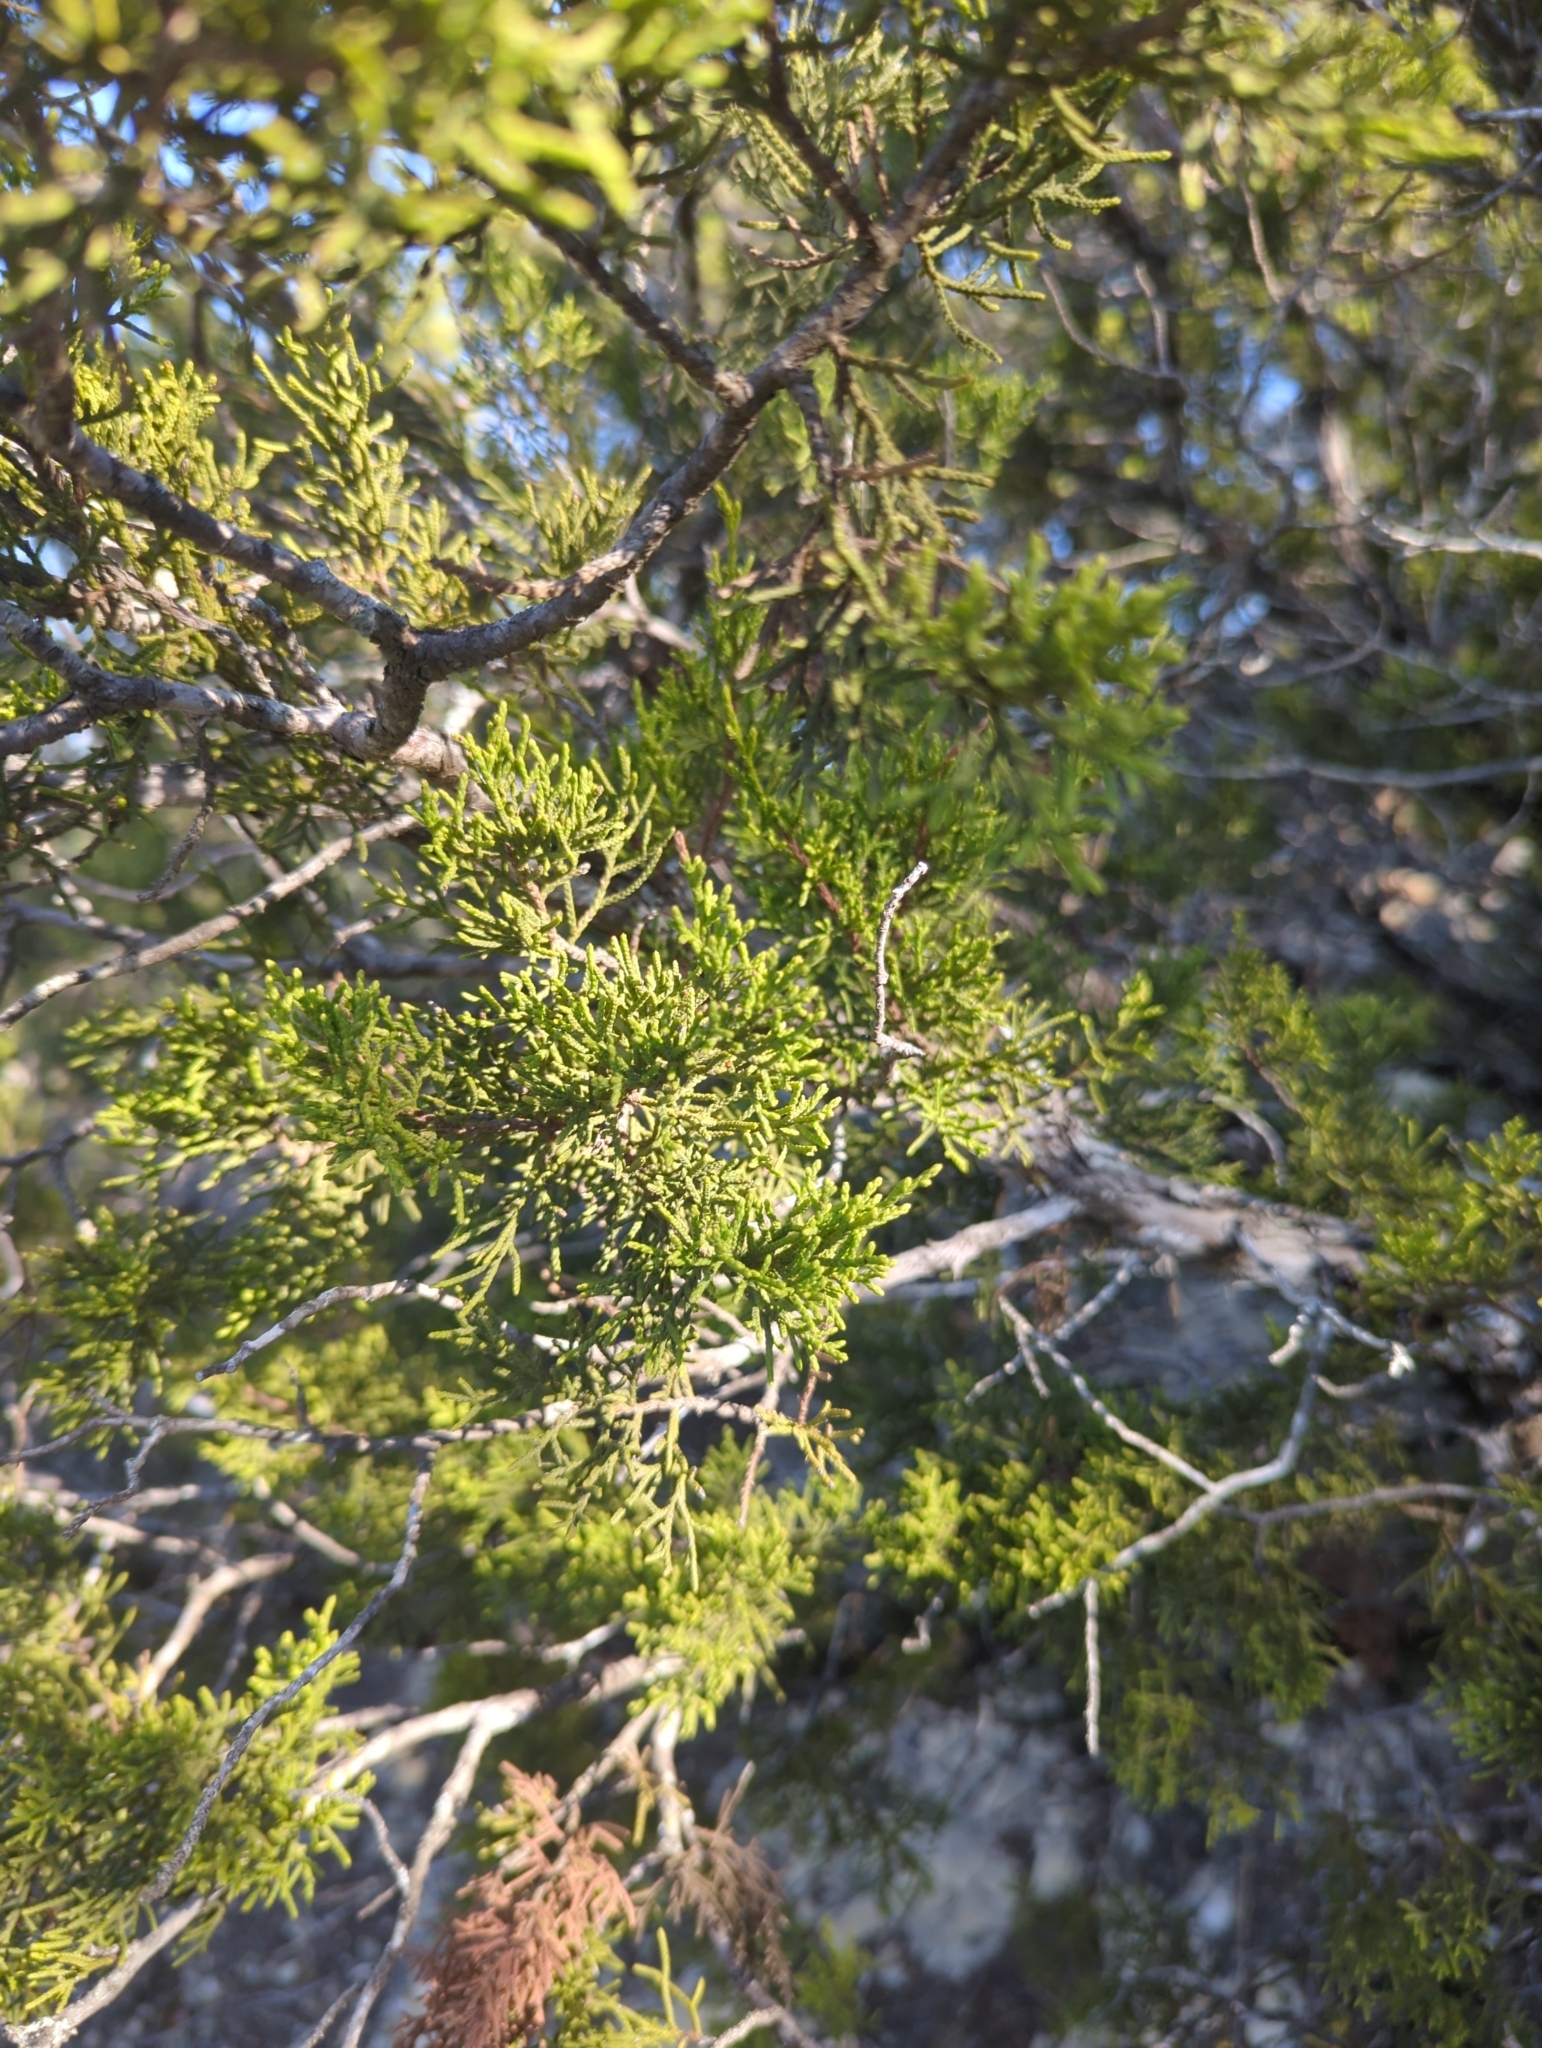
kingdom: Plantae
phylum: Tracheophyta
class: Pinopsida
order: Pinales
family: Cupressaceae
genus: Juniperus
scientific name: Juniperus ashei
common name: Mexican juniper
